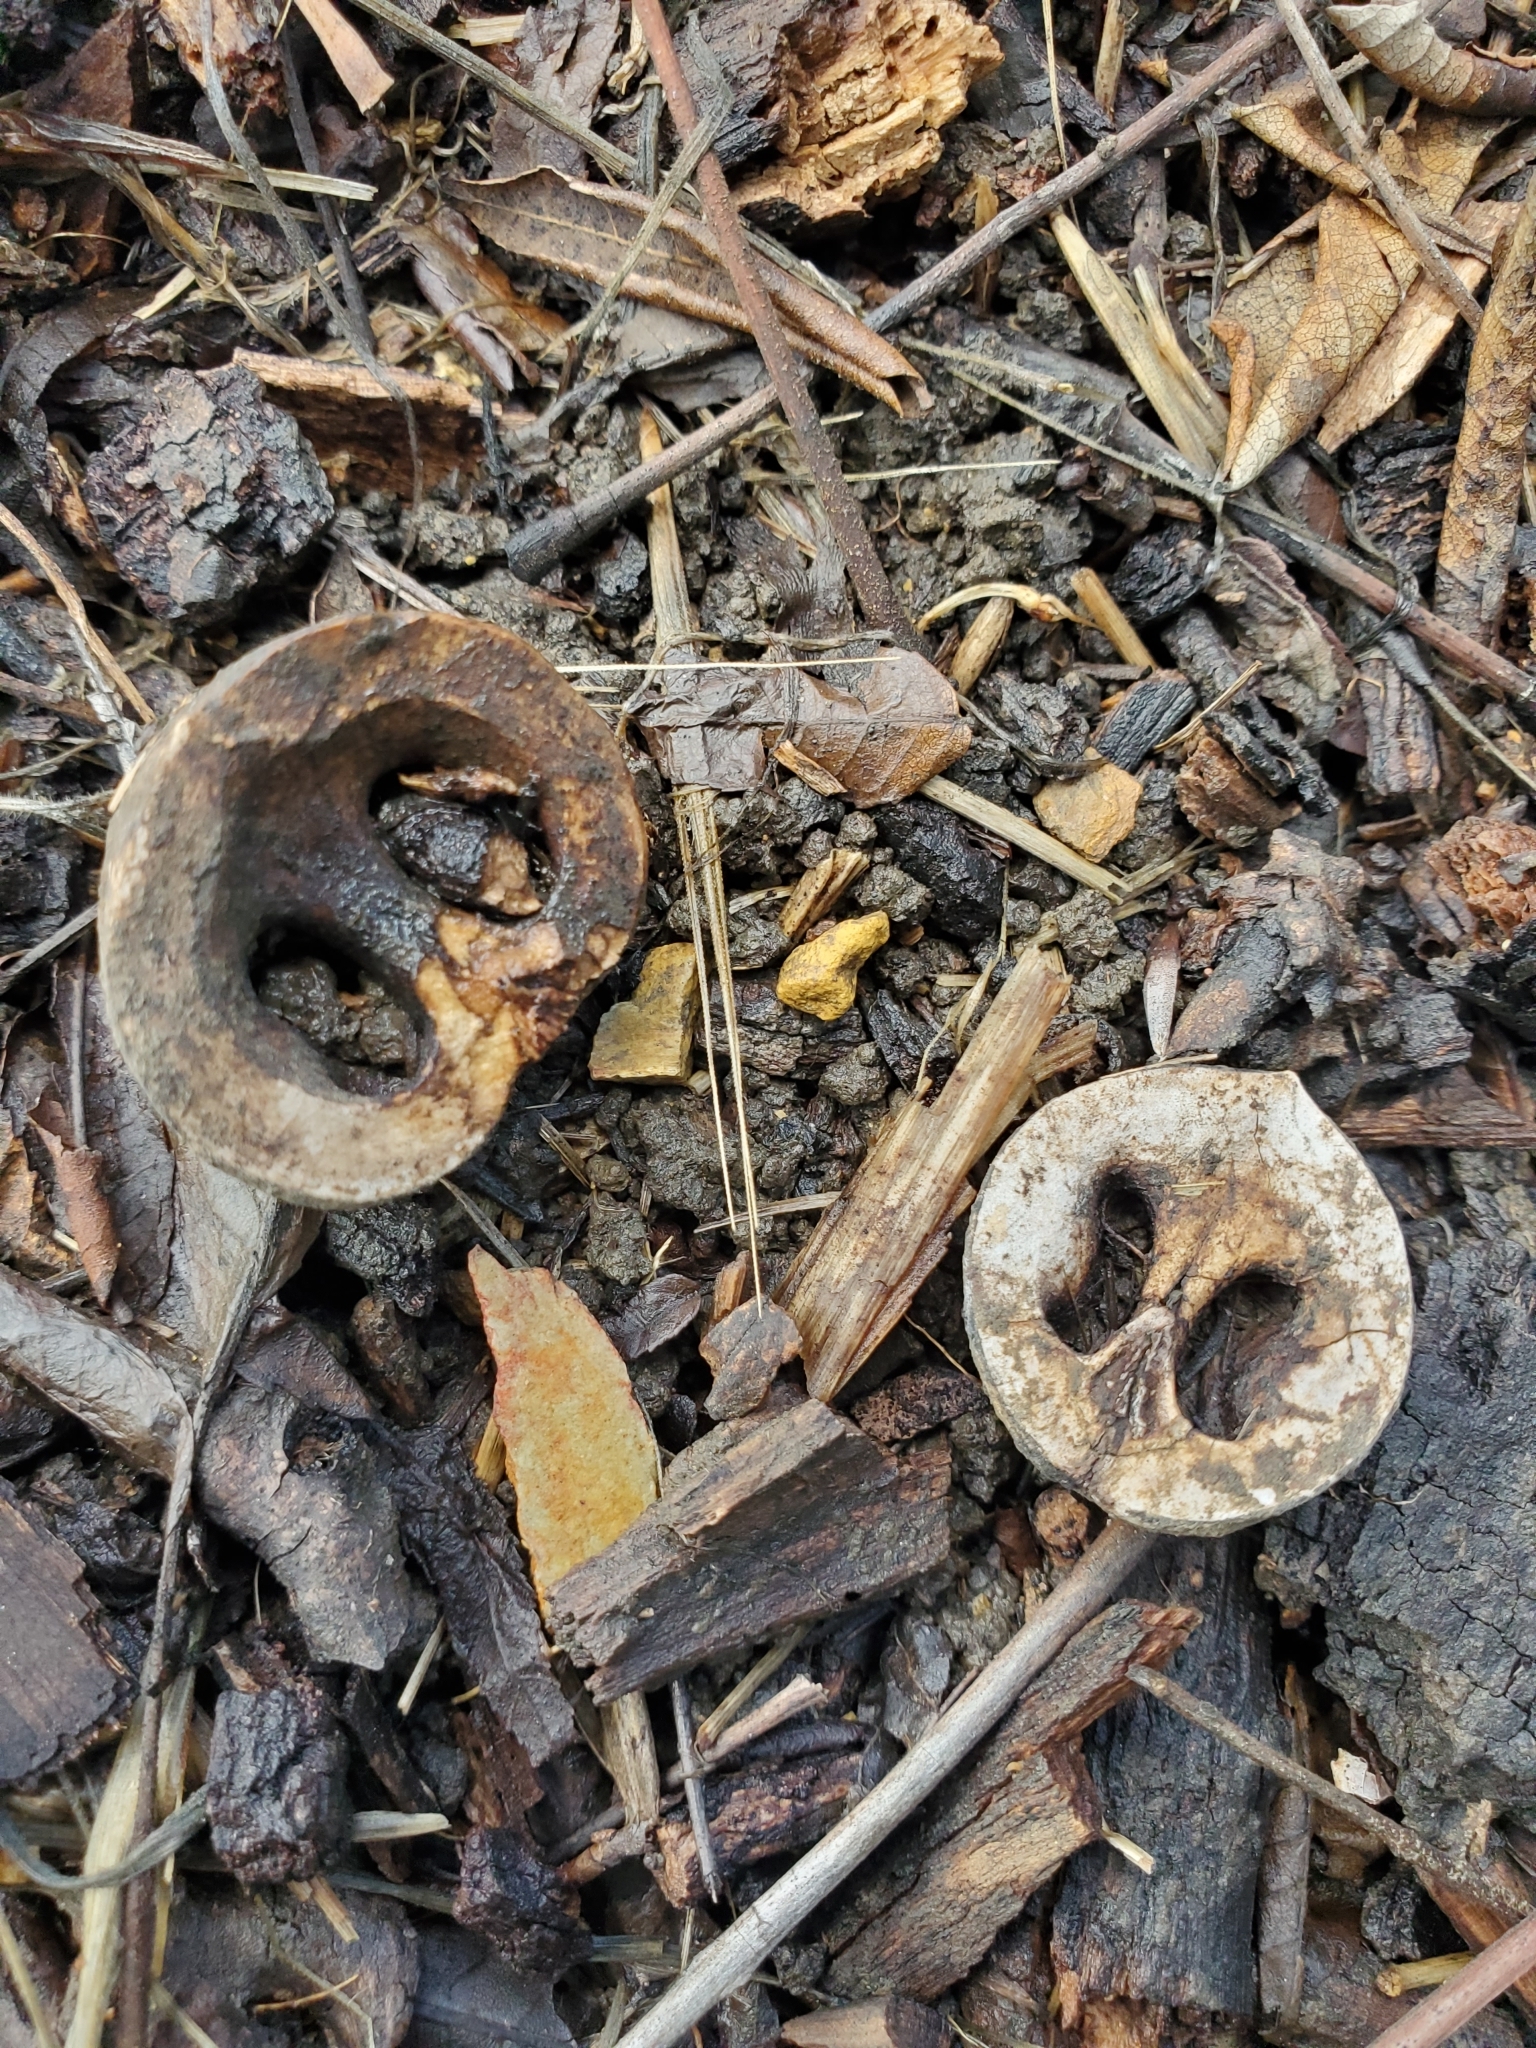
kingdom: Plantae
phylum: Tracheophyta
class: Magnoliopsida
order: Fagales
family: Juglandaceae
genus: Juglans
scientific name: Juglans californica
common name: Southern california black walnut
